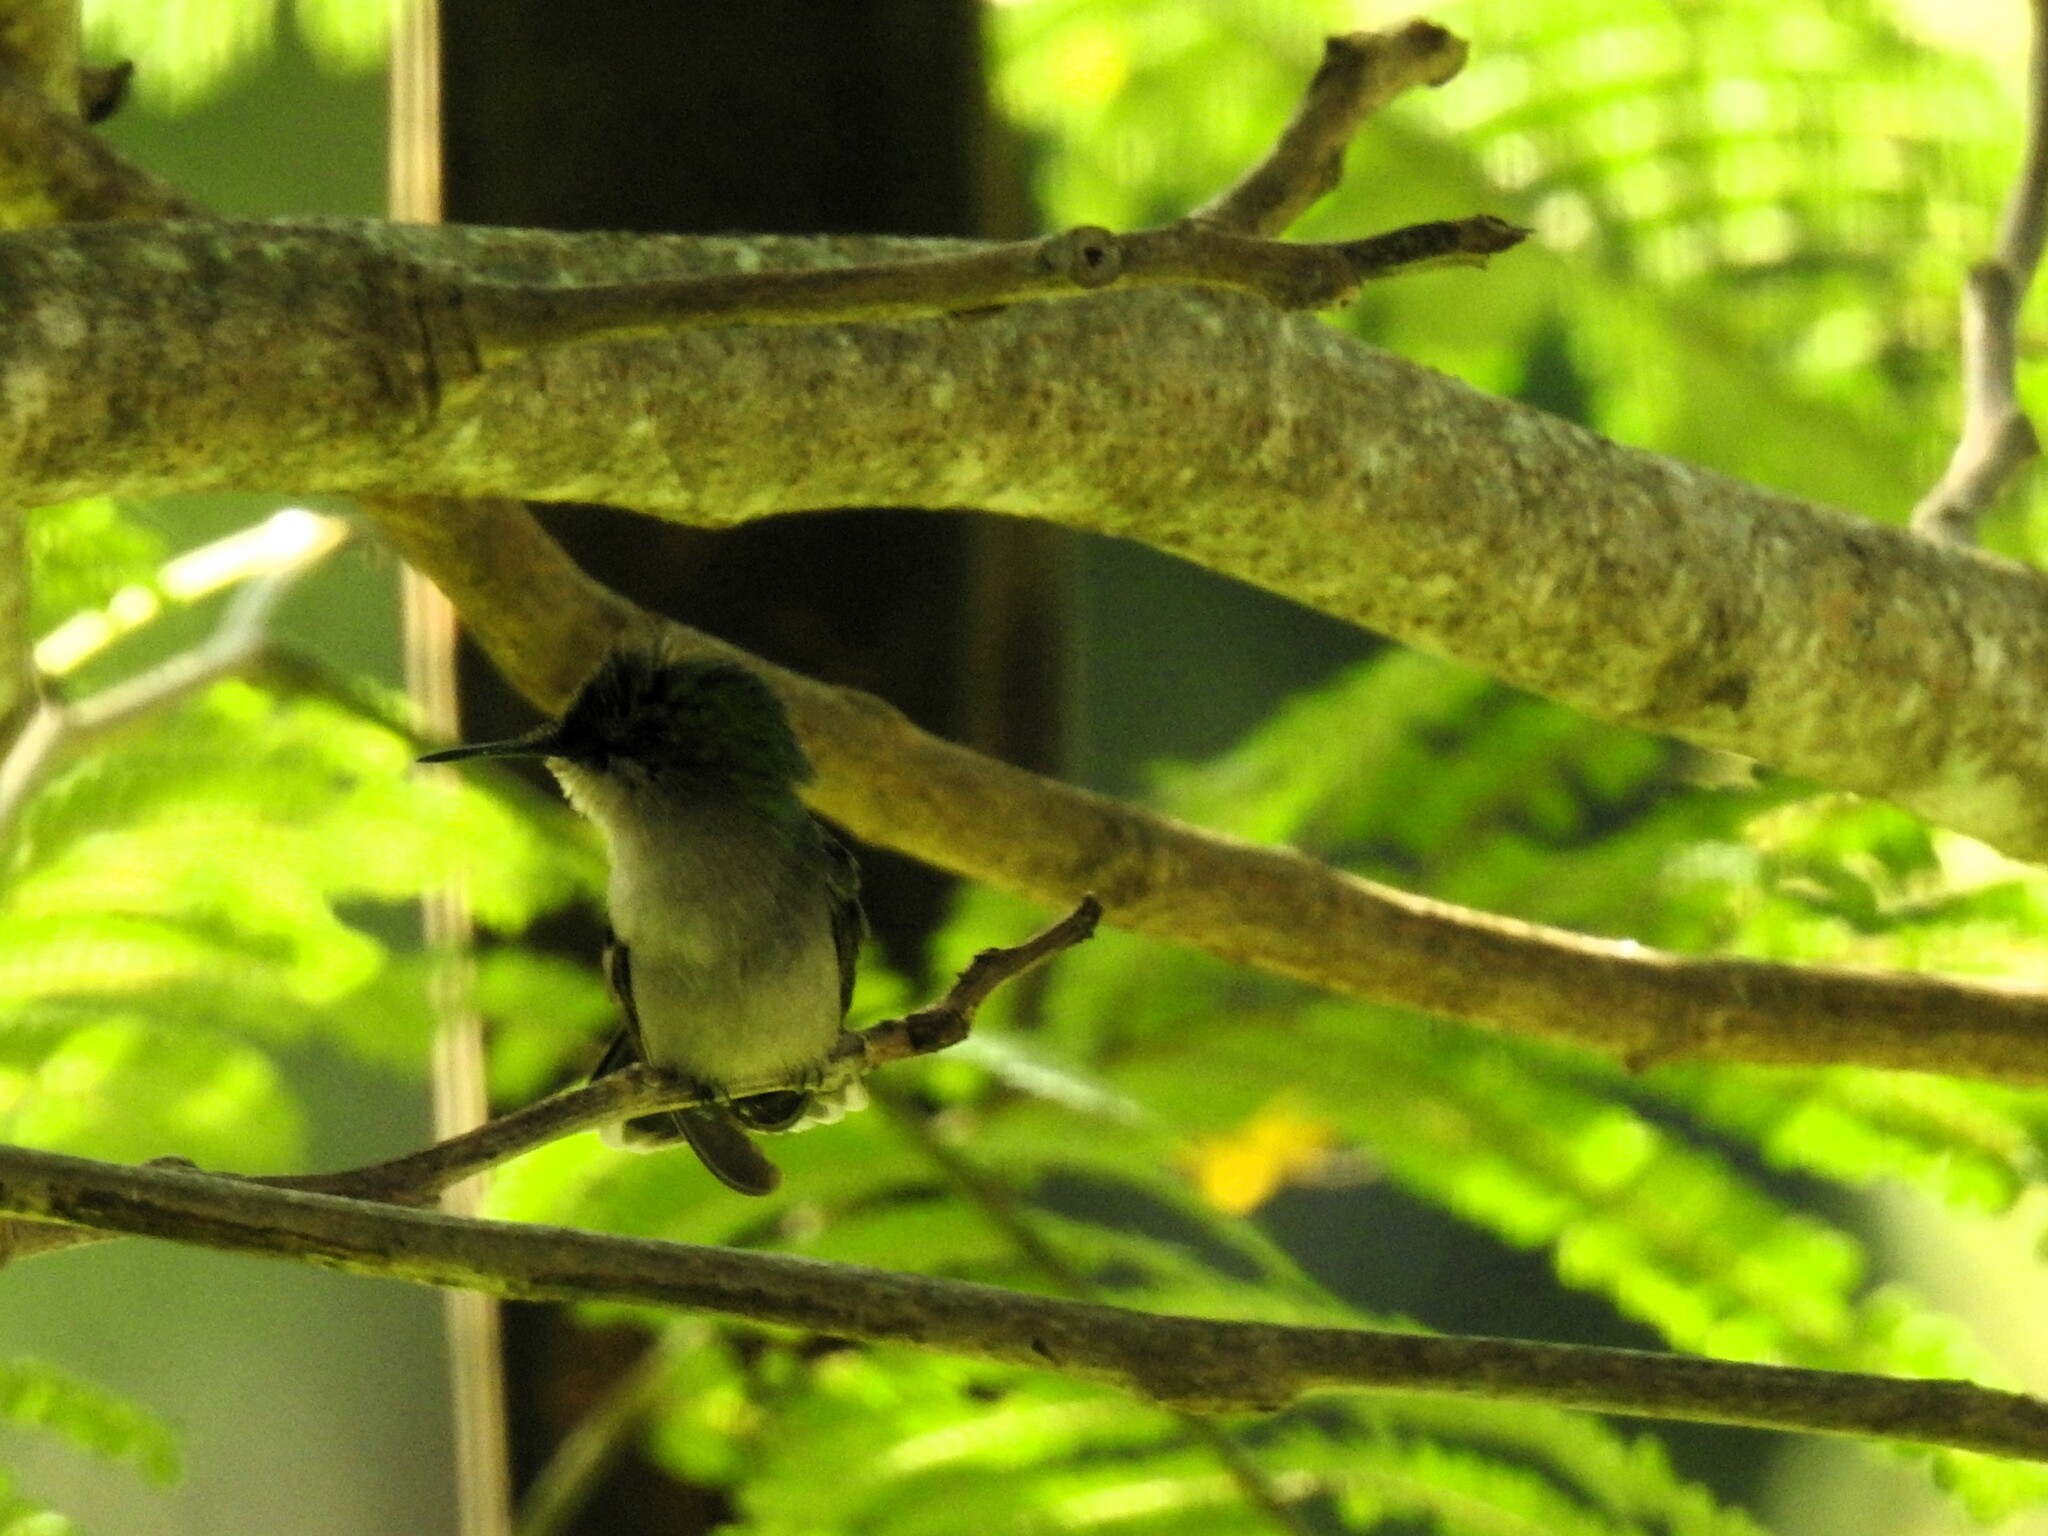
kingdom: Animalia
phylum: Chordata
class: Aves
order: Apodiformes
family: Trochilidae
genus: Orthorhyncus
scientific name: Orthorhyncus cristatus
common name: Antillean crested hummingbird
